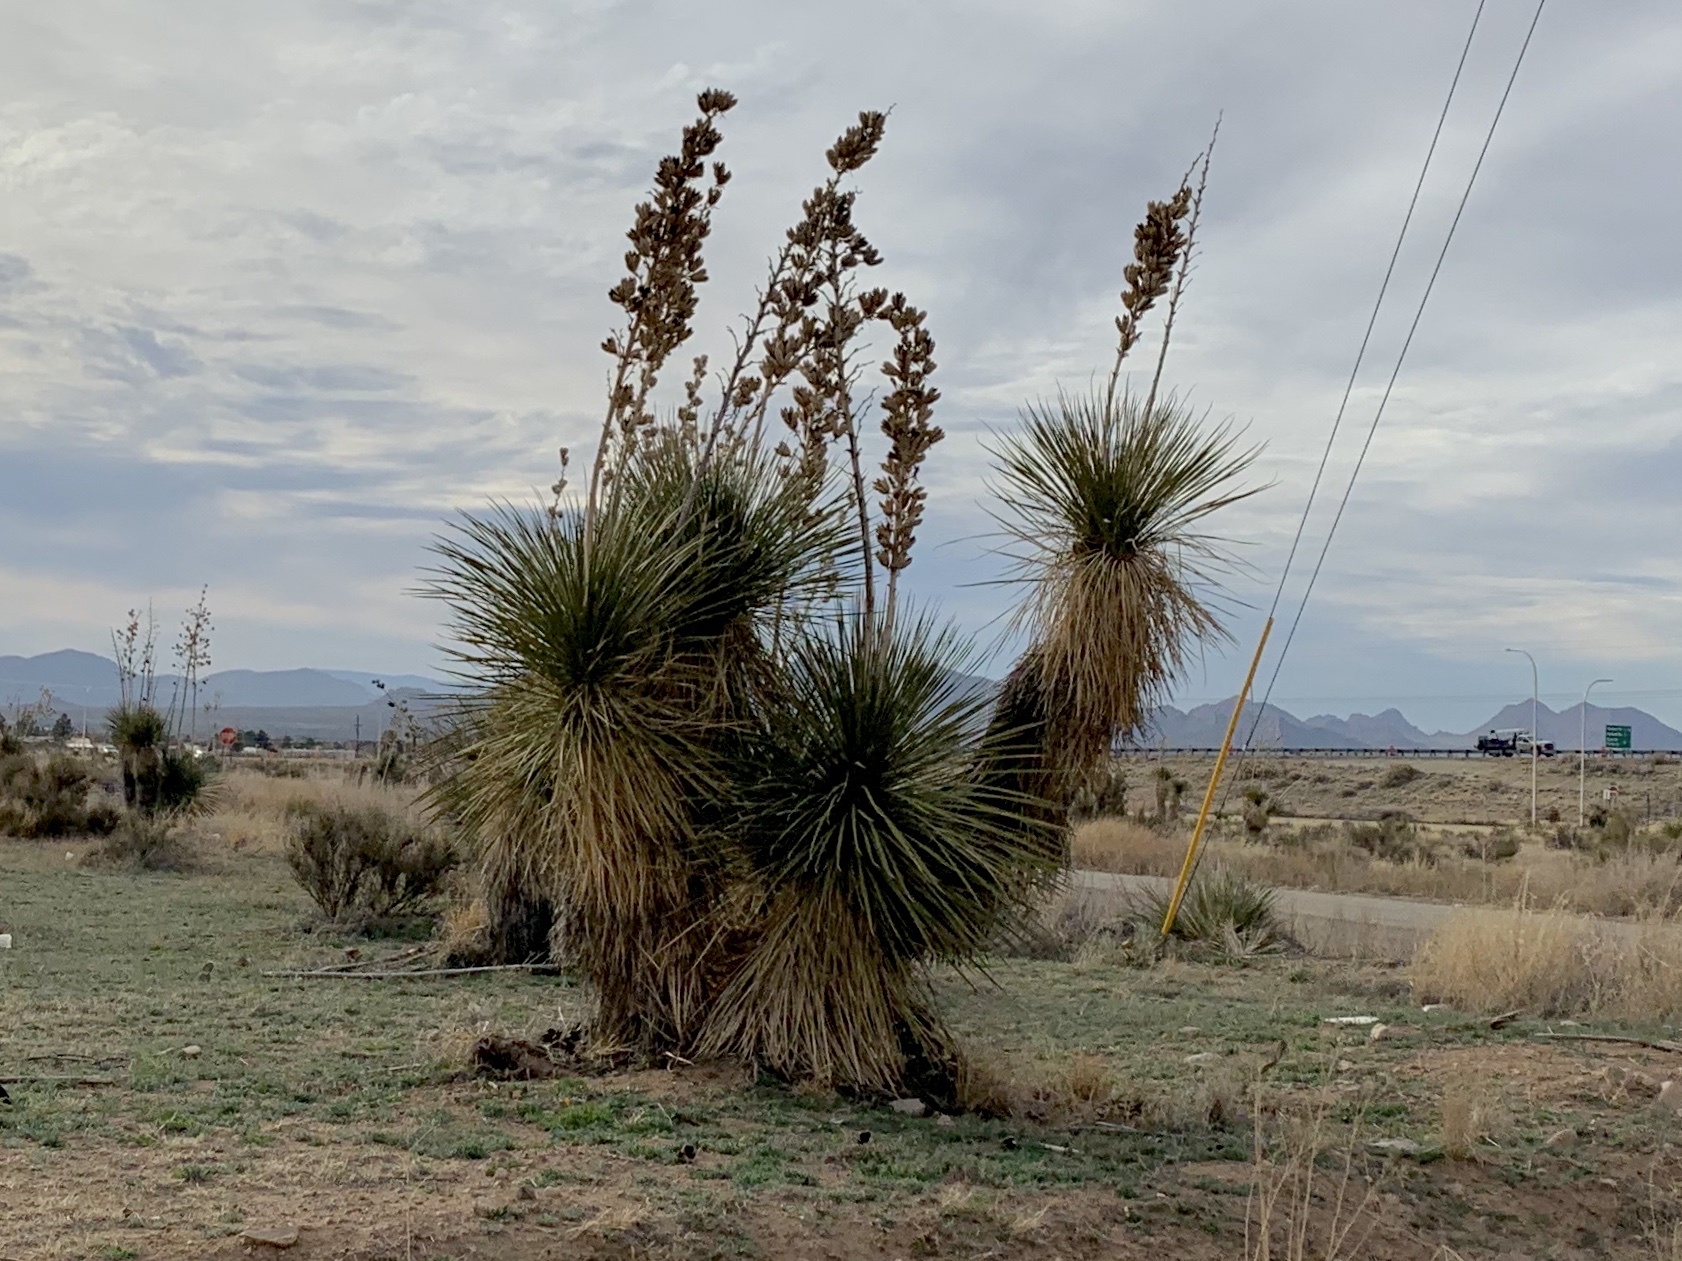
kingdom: Plantae
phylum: Tracheophyta
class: Liliopsida
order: Asparagales
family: Asparagaceae
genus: Yucca
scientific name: Yucca elata
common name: Palmella
